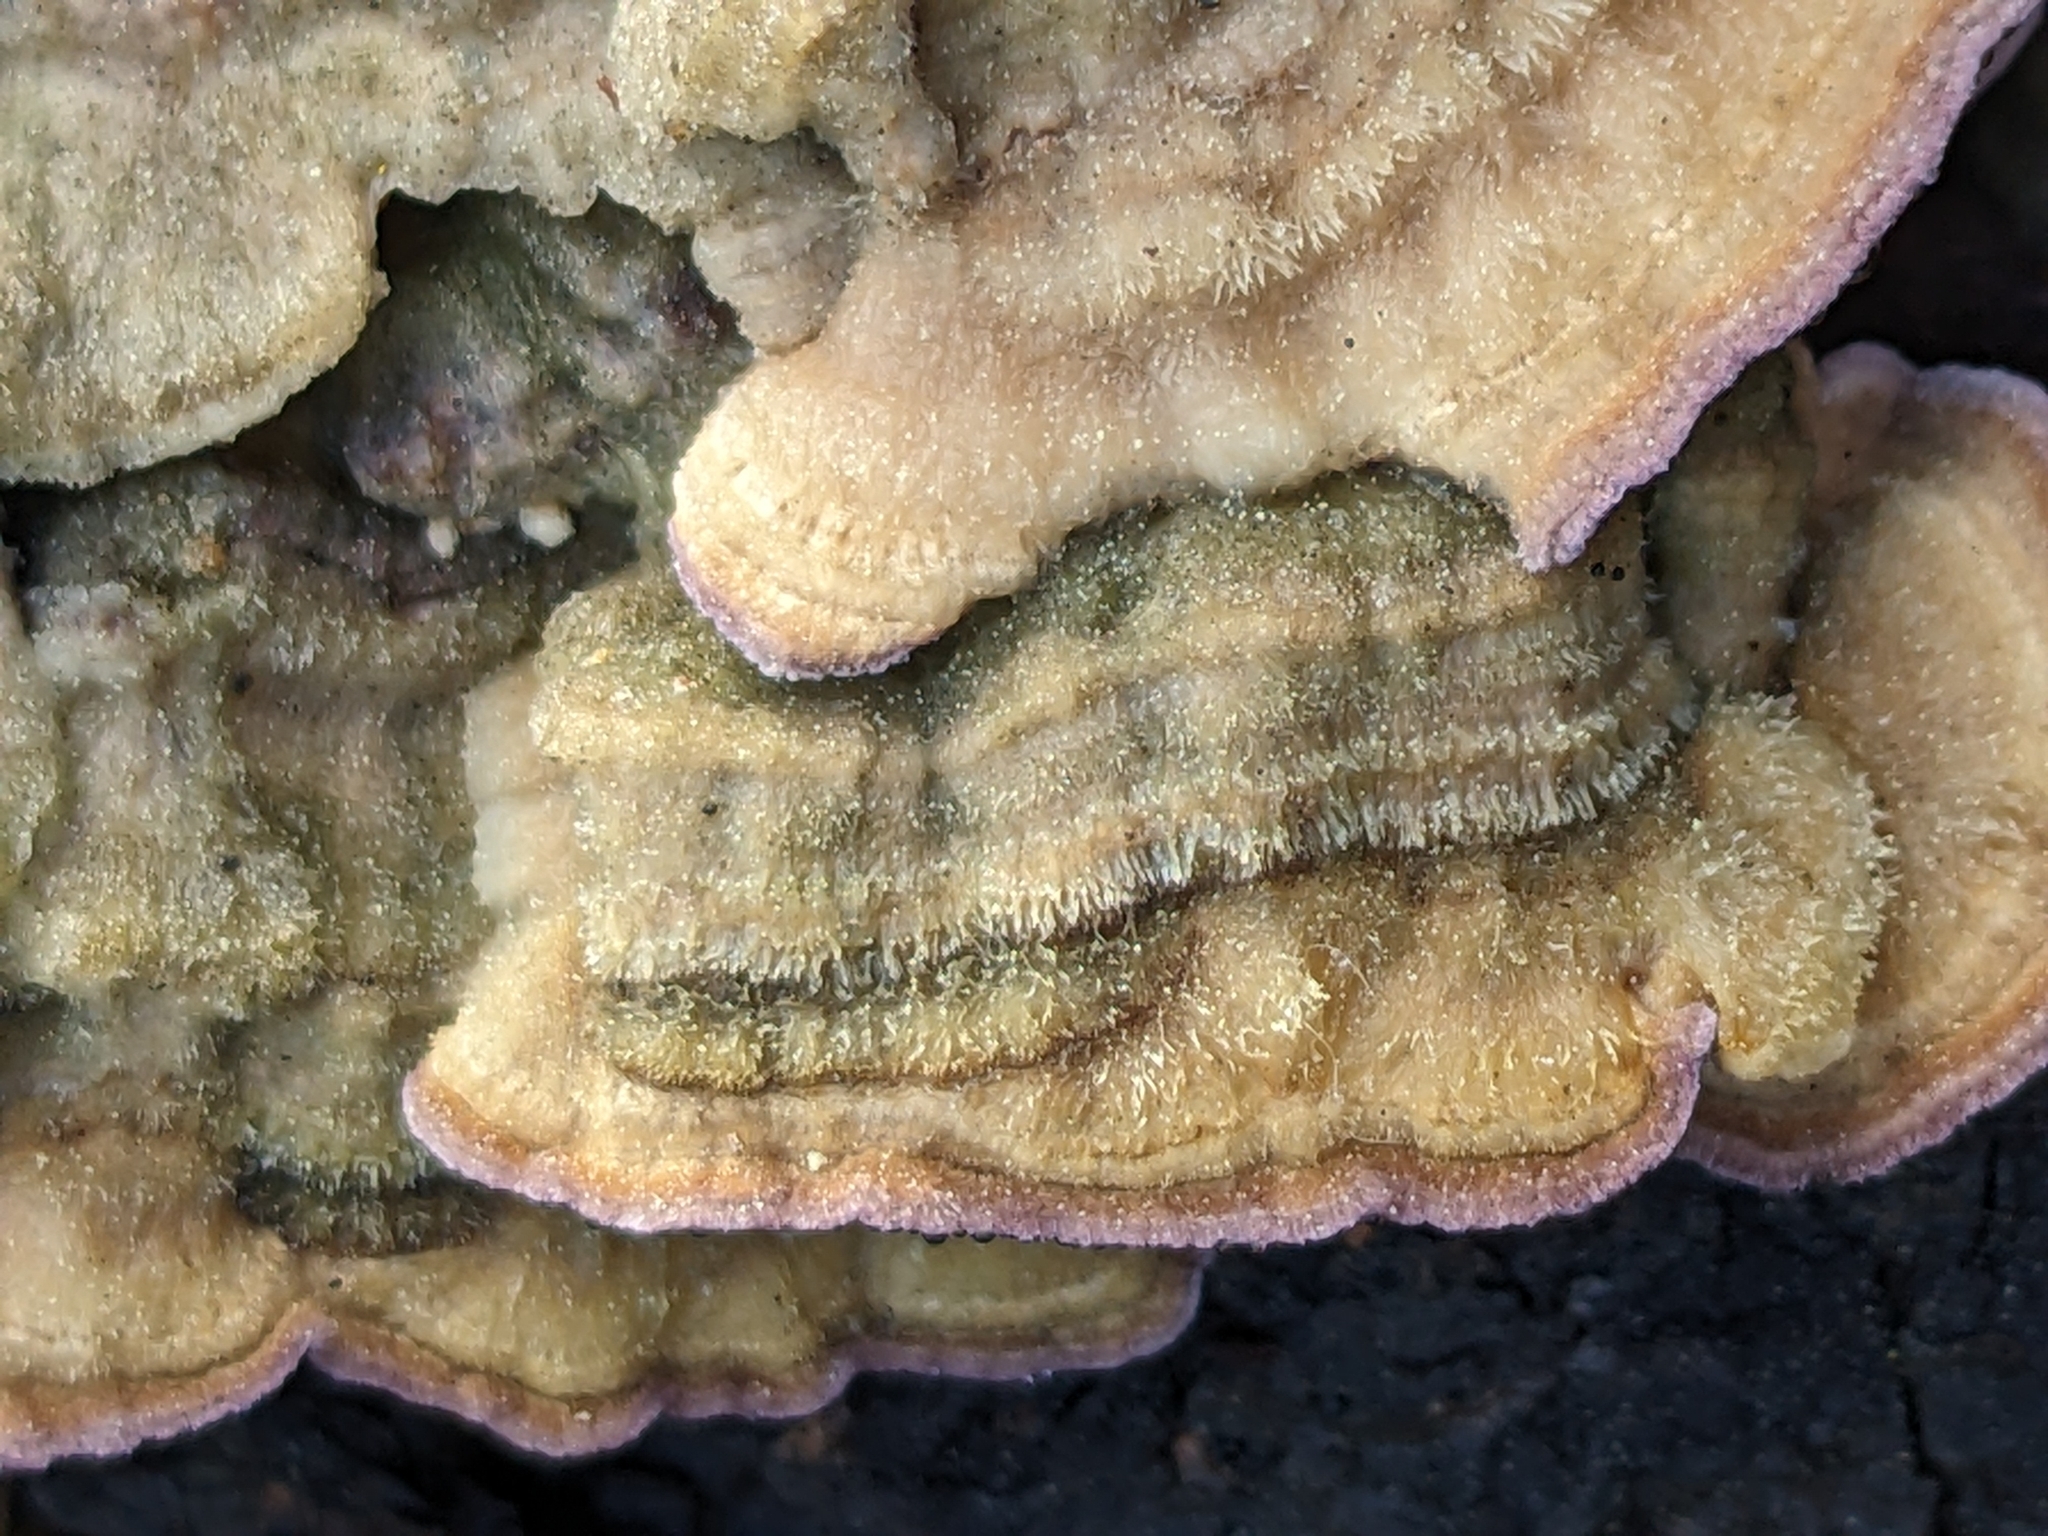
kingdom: Fungi
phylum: Basidiomycota
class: Agaricomycetes
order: Hymenochaetales
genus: Trichaptum
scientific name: Trichaptum abietinum
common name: Purplepore bracket
